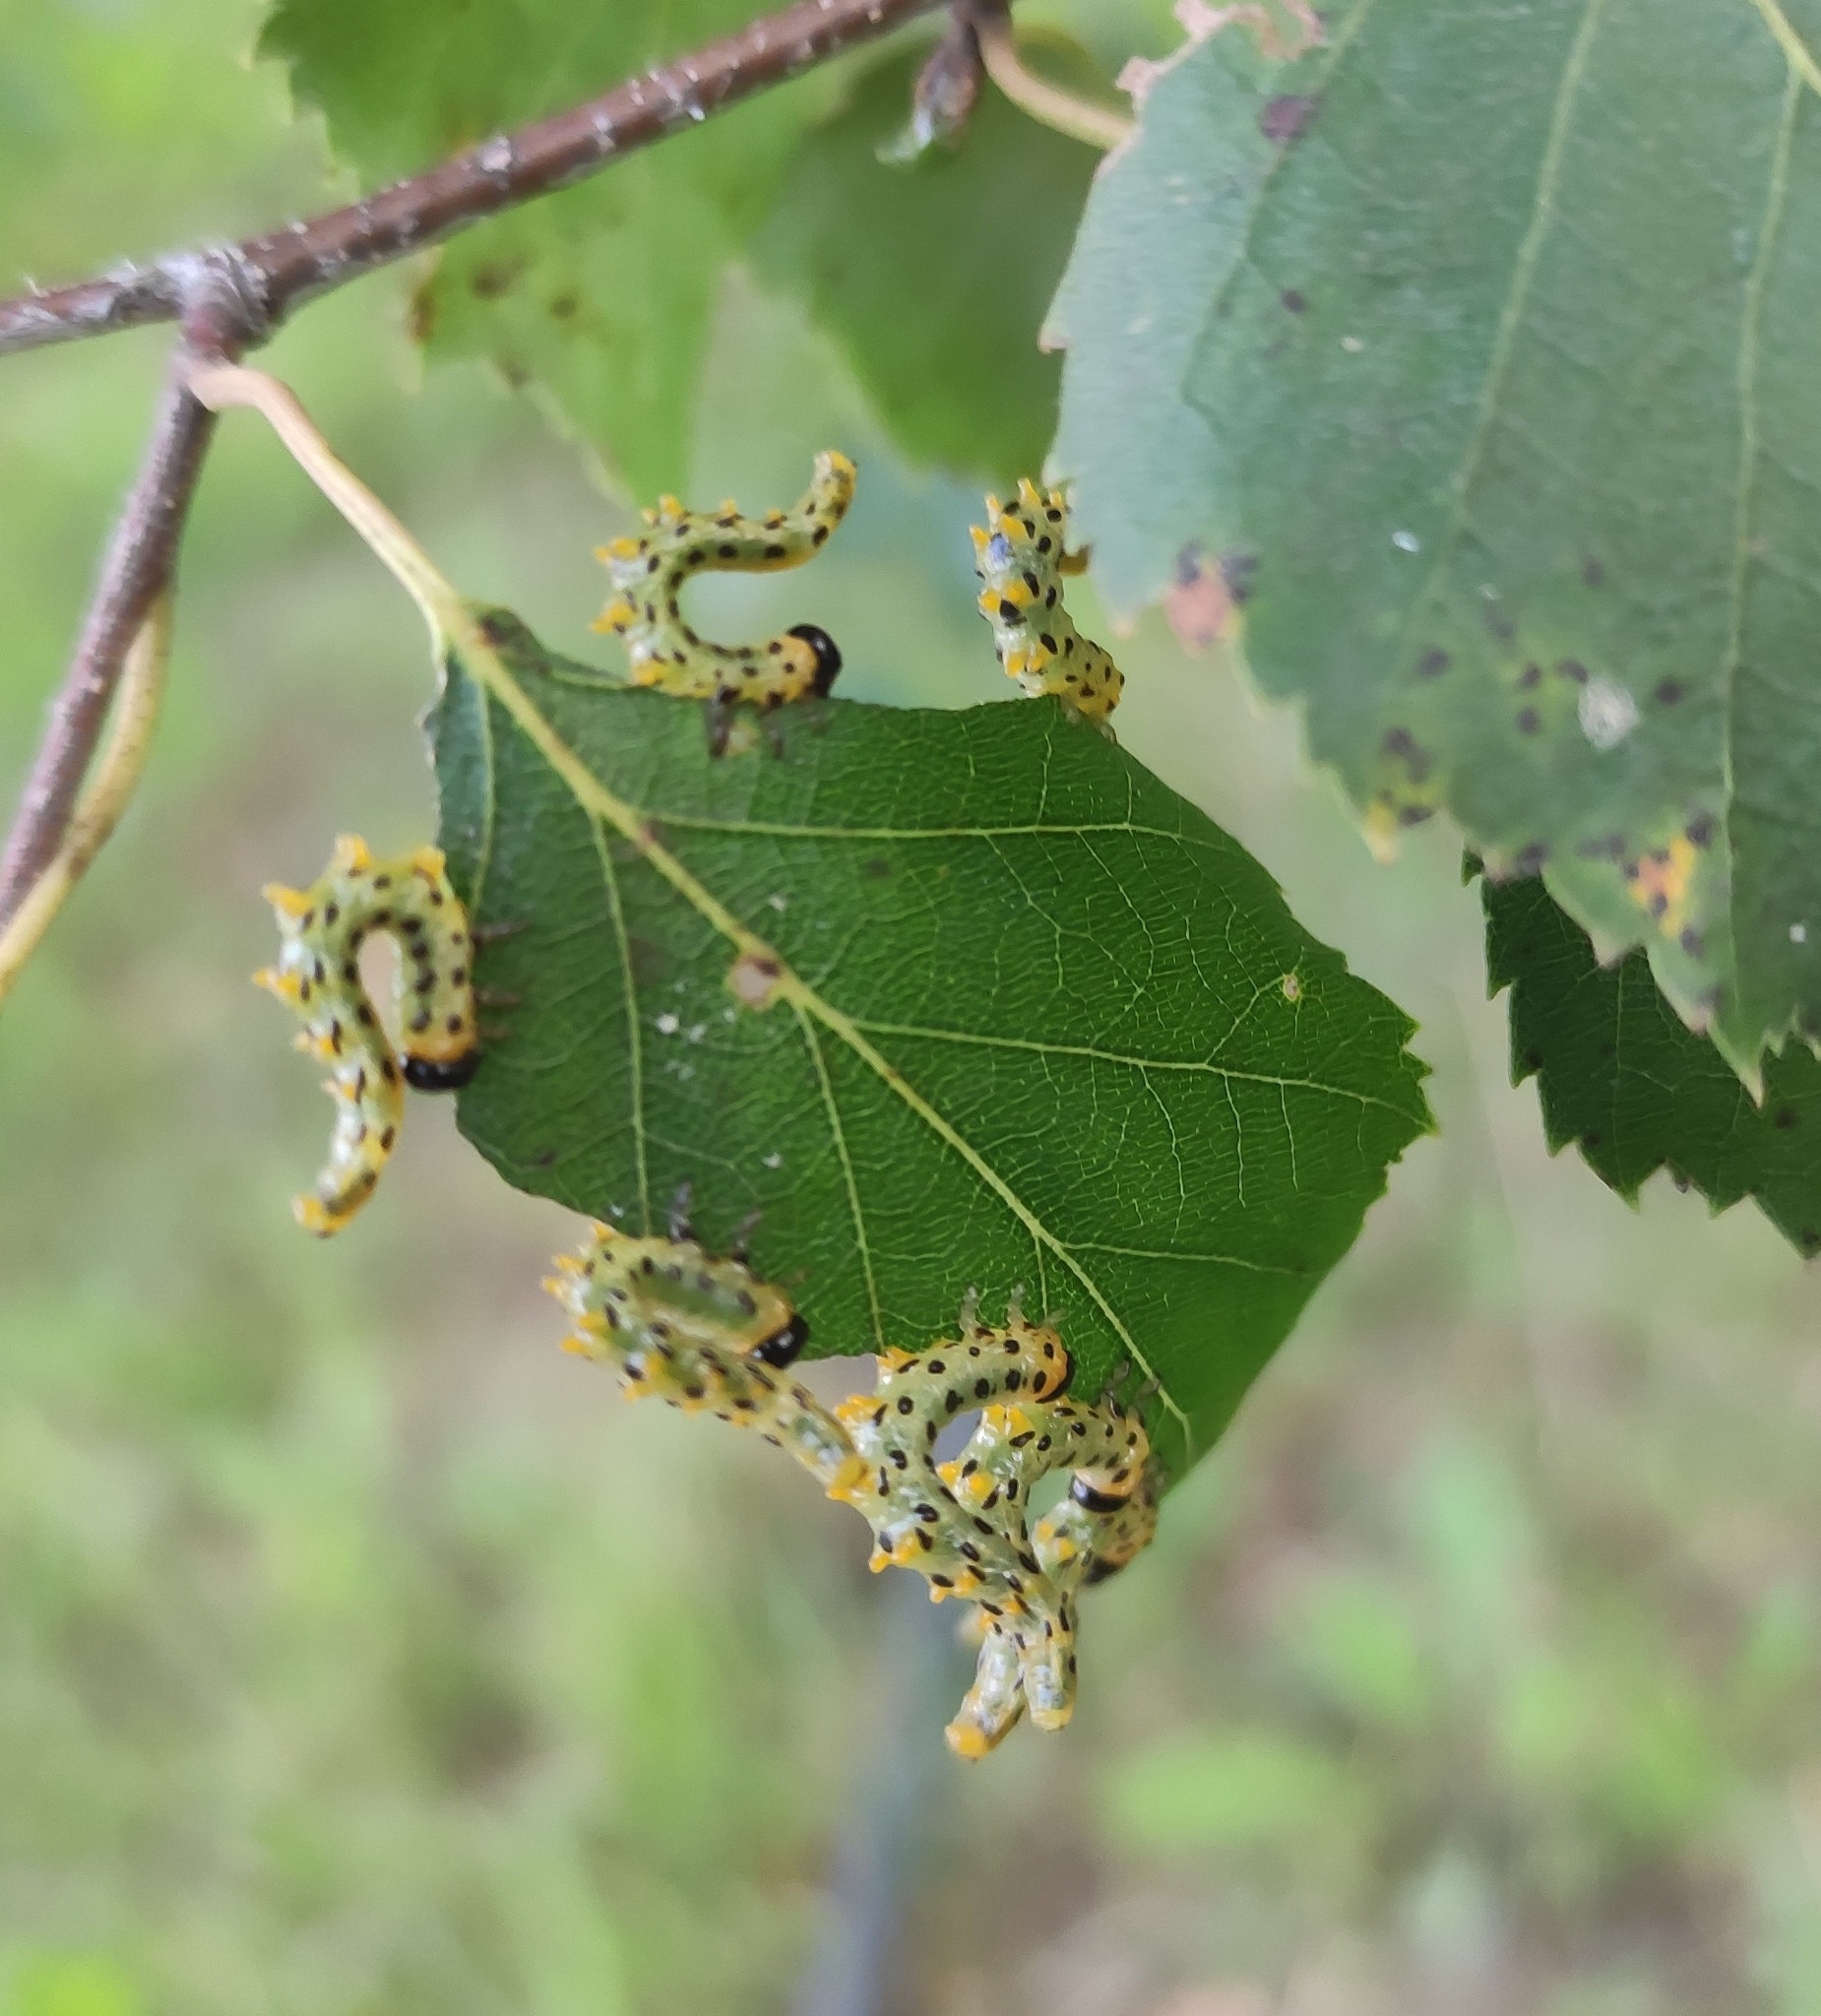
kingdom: Animalia
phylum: Arthropoda
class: Insecta
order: Hymenoptera
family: Tenthredinidae
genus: Craesus
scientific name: Craesus septentrionalis
